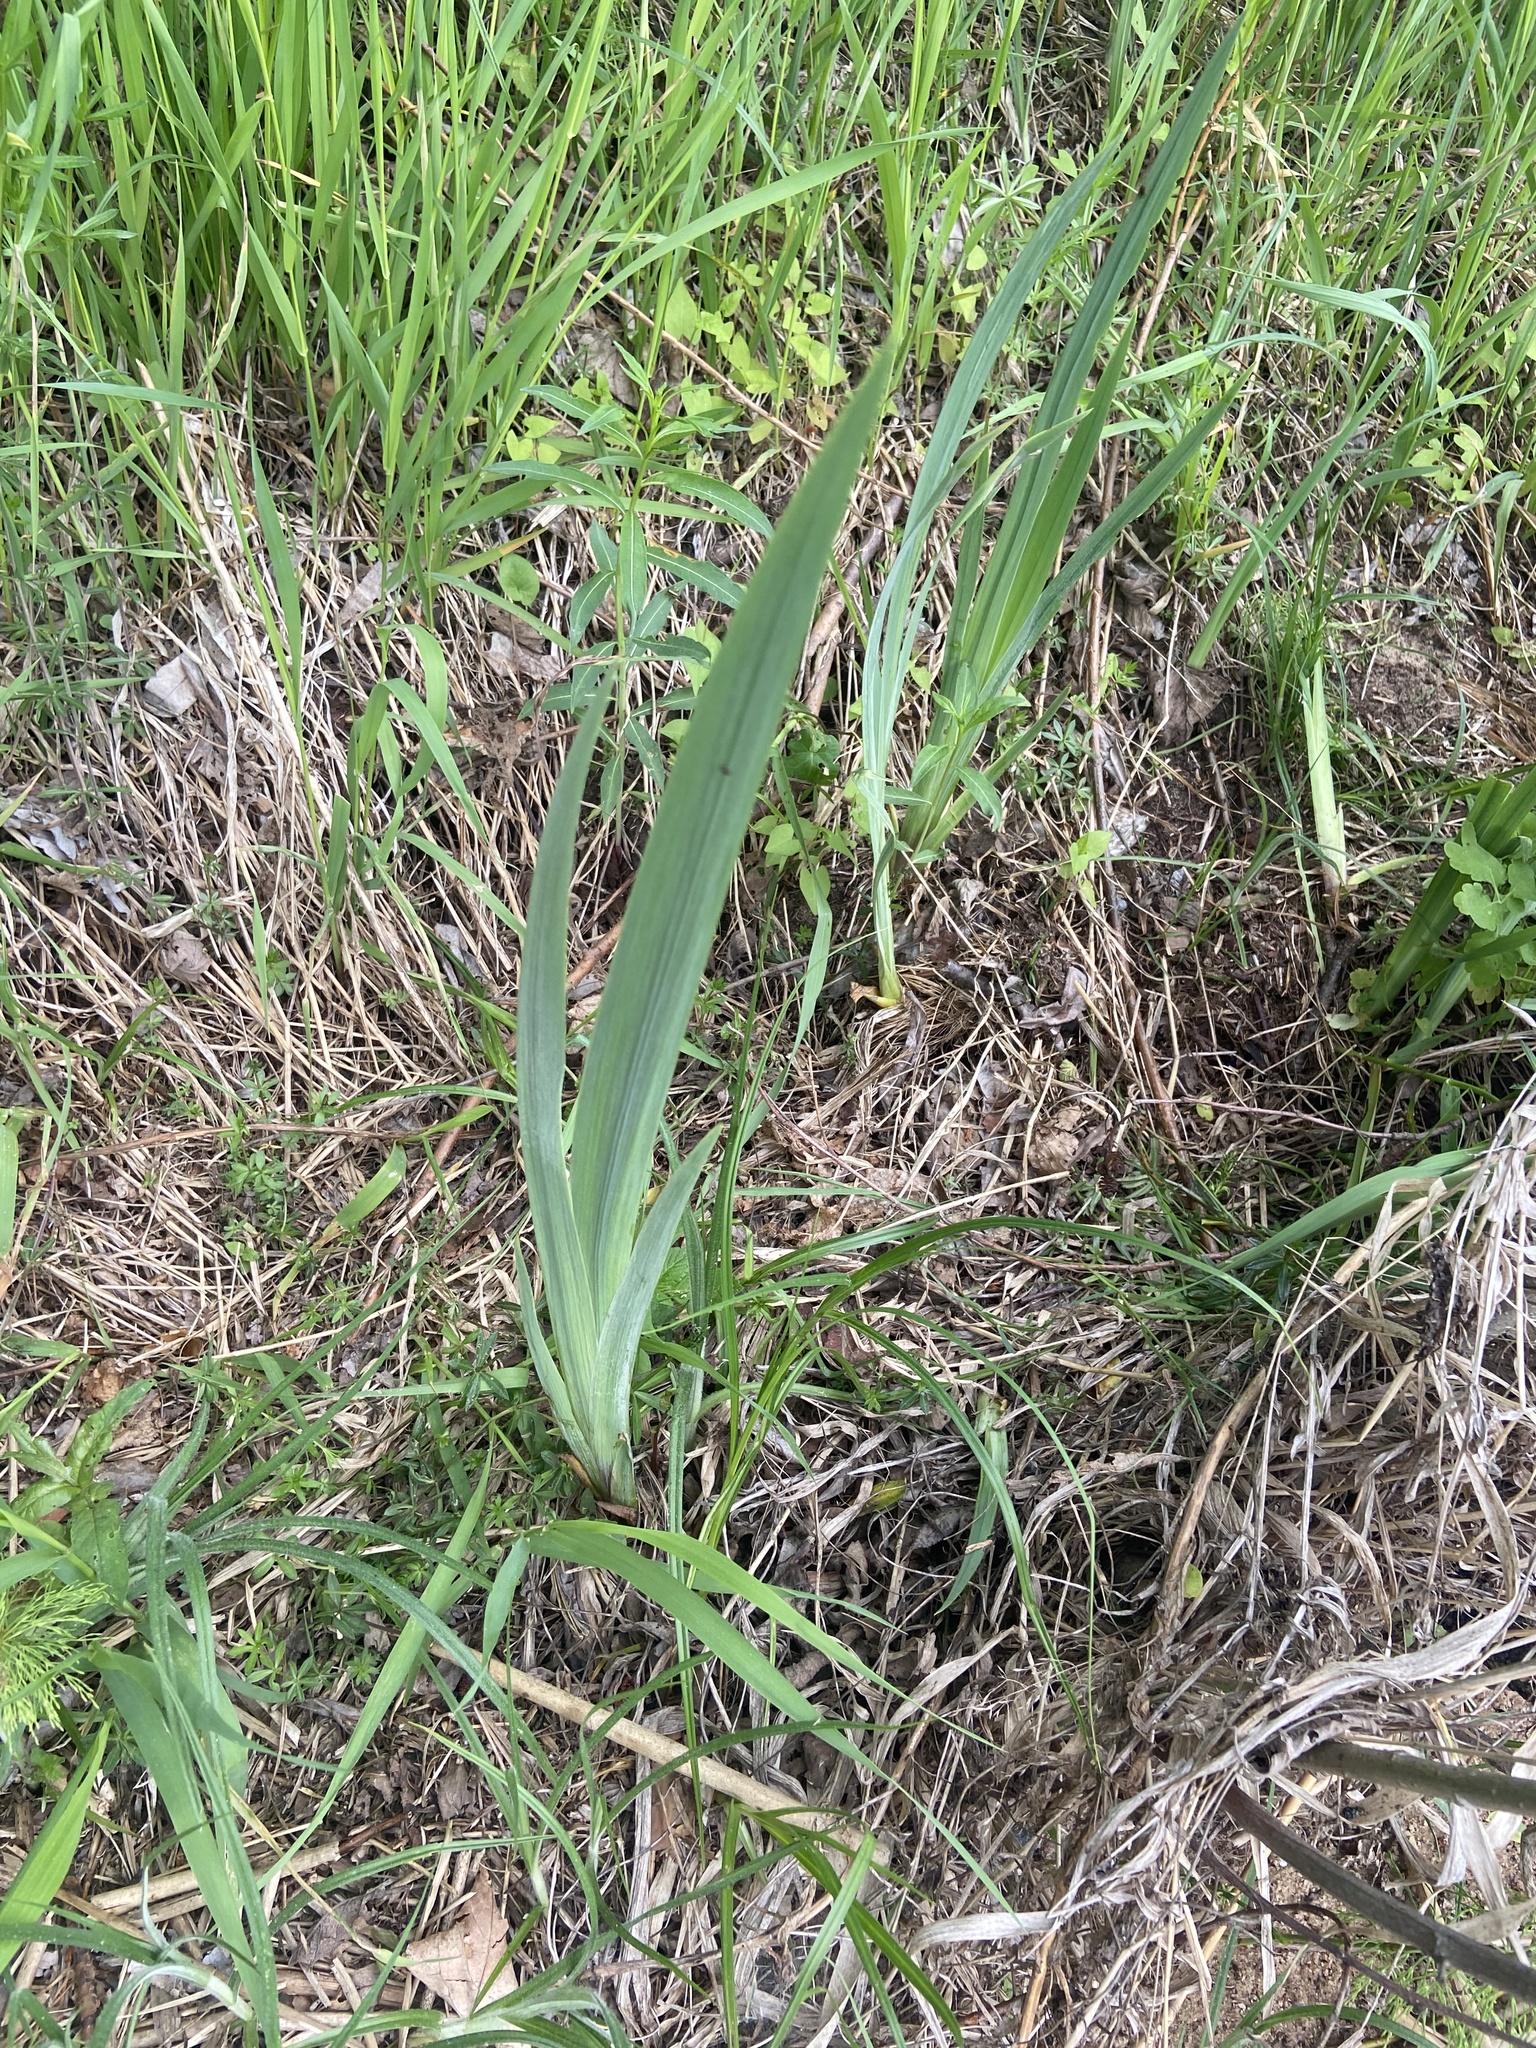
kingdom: Plantae
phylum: Tracheophyta
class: Liliopsida
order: Asparagales
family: Iridaceae
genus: Iris
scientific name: Iris pseudacorus
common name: Yellow flag
